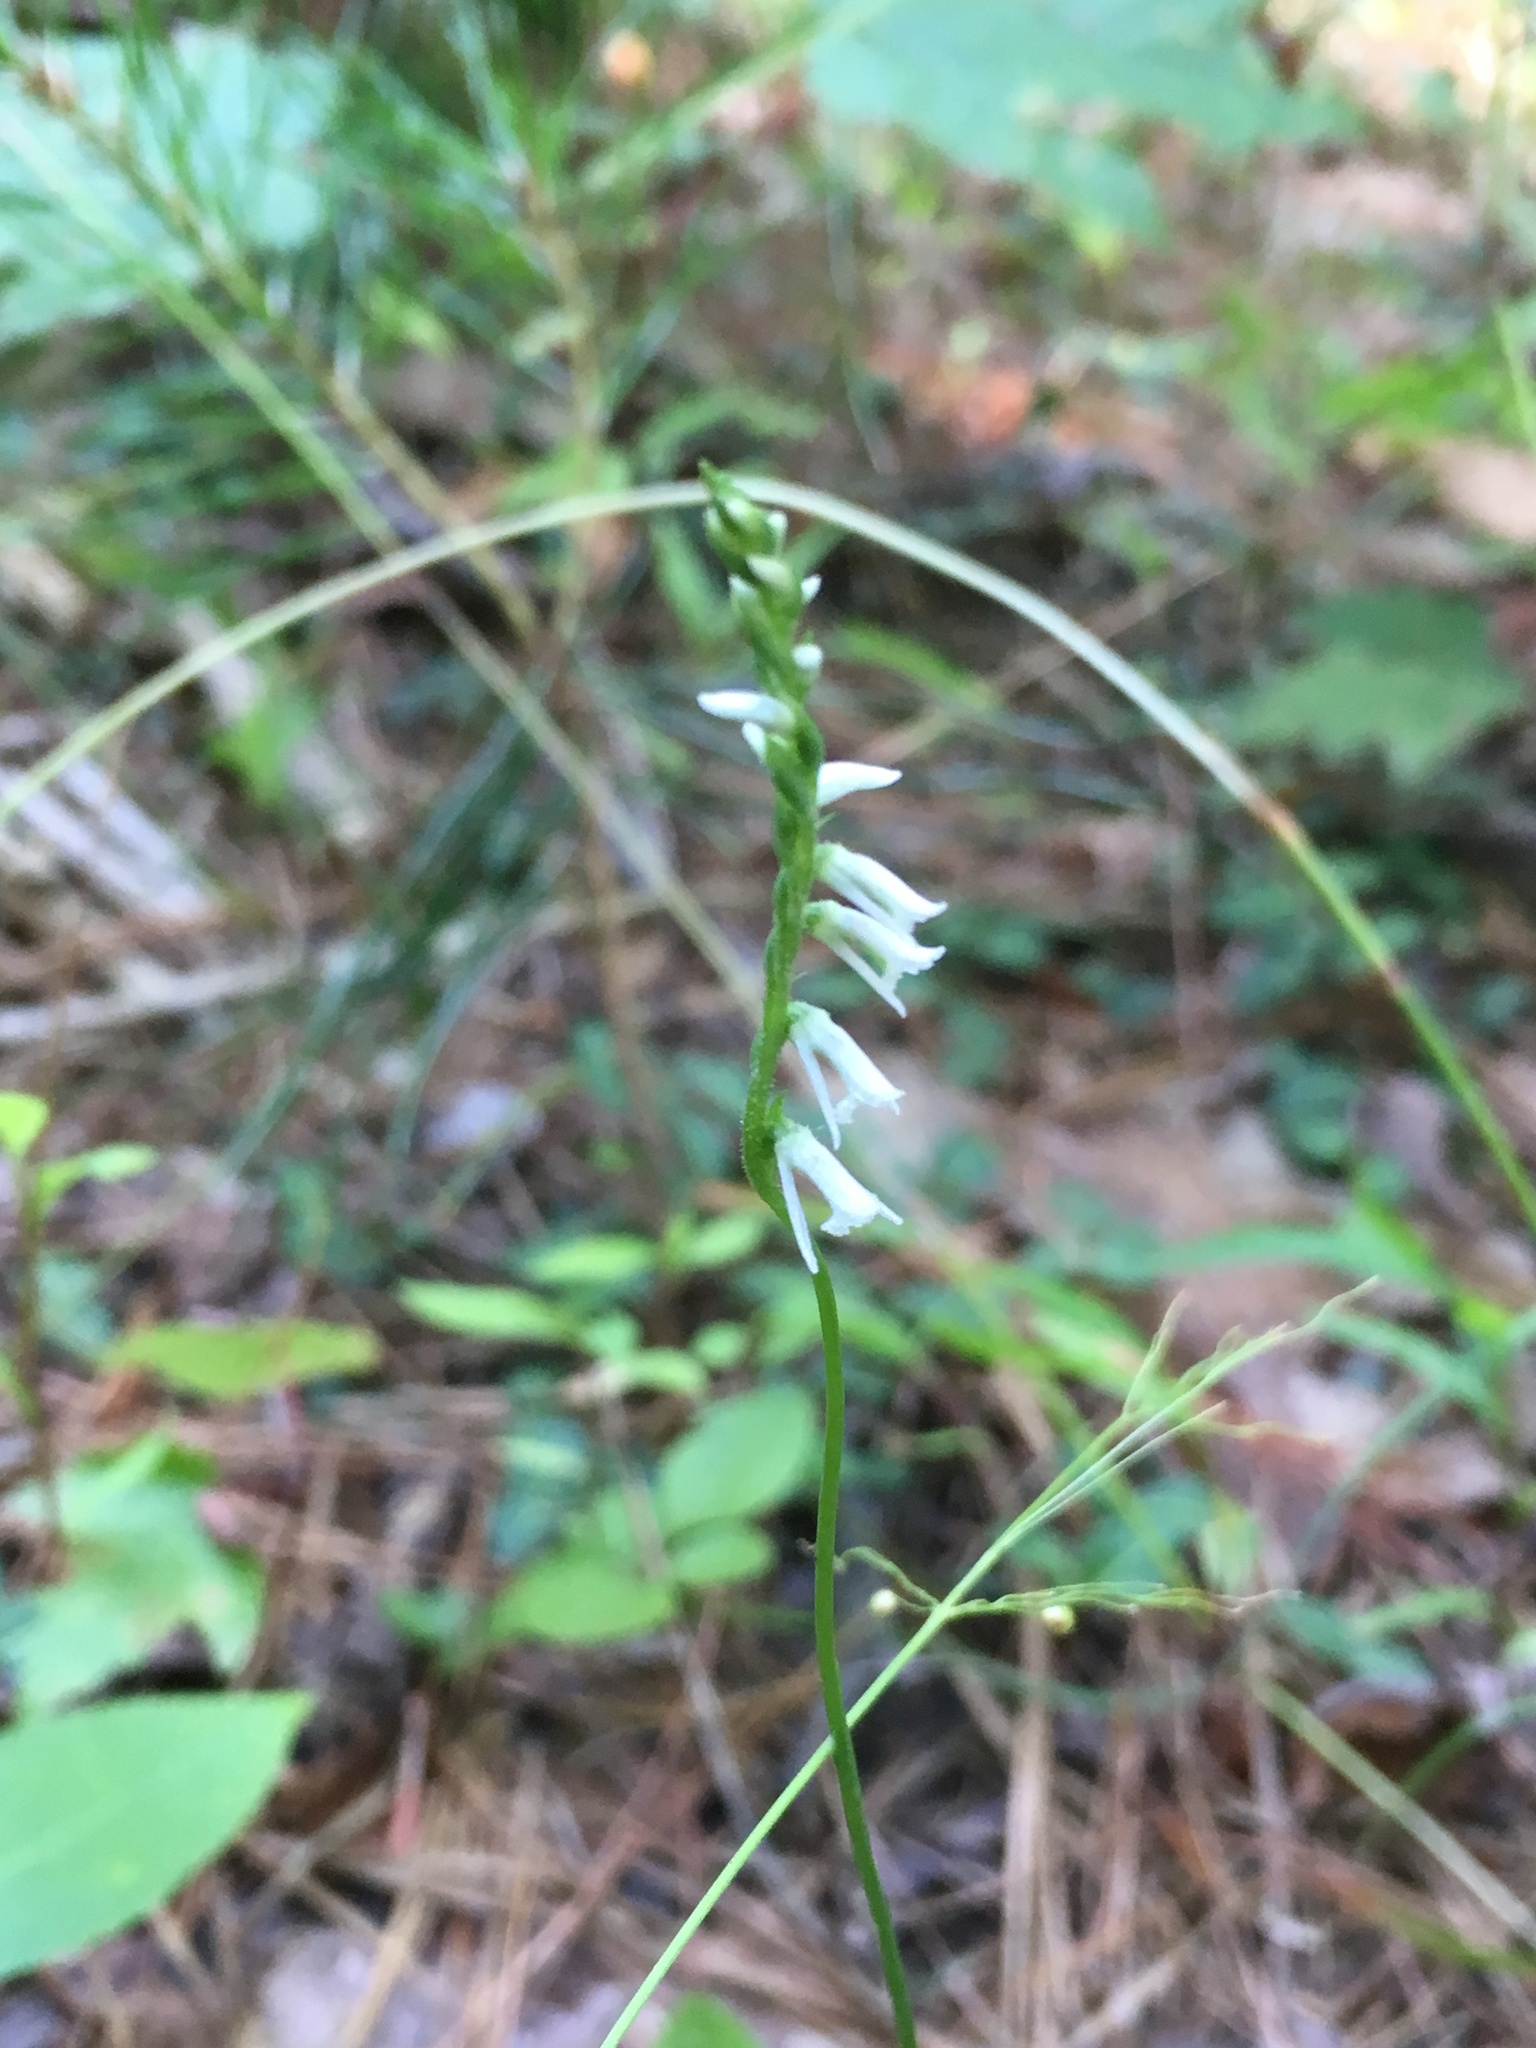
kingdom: Plantae
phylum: Tracheophyta
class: Liliopsida
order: Asparagales
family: Orchidaceae
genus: Spiranthes
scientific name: Spiranthes lacera
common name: Northern slender ladies'-tresses
